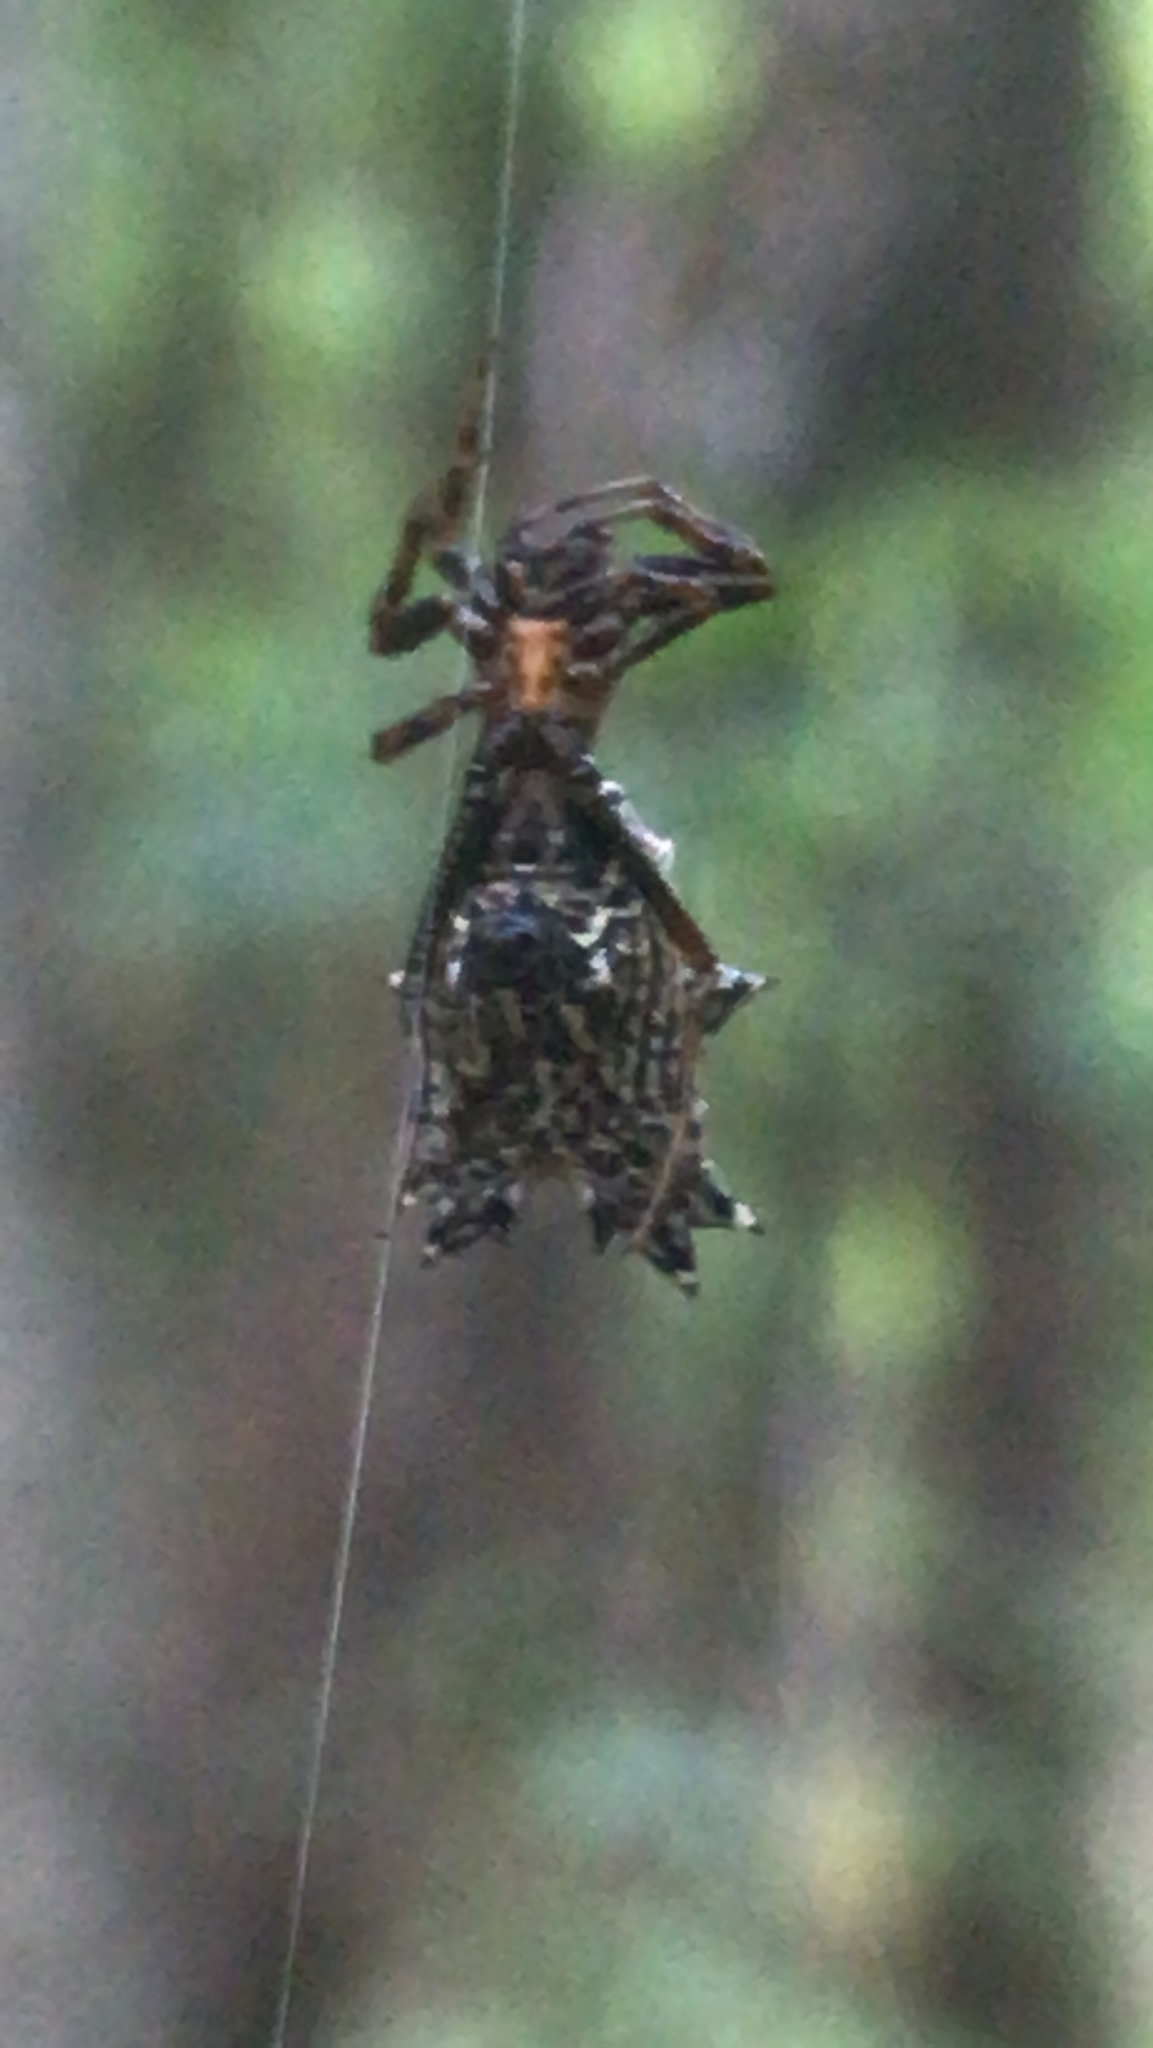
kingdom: Animalia
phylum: Arthropoda
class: Arachnida
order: Araneae
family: Araneidae
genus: Micrathena
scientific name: Micrathena gracilis
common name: Orb weavers
